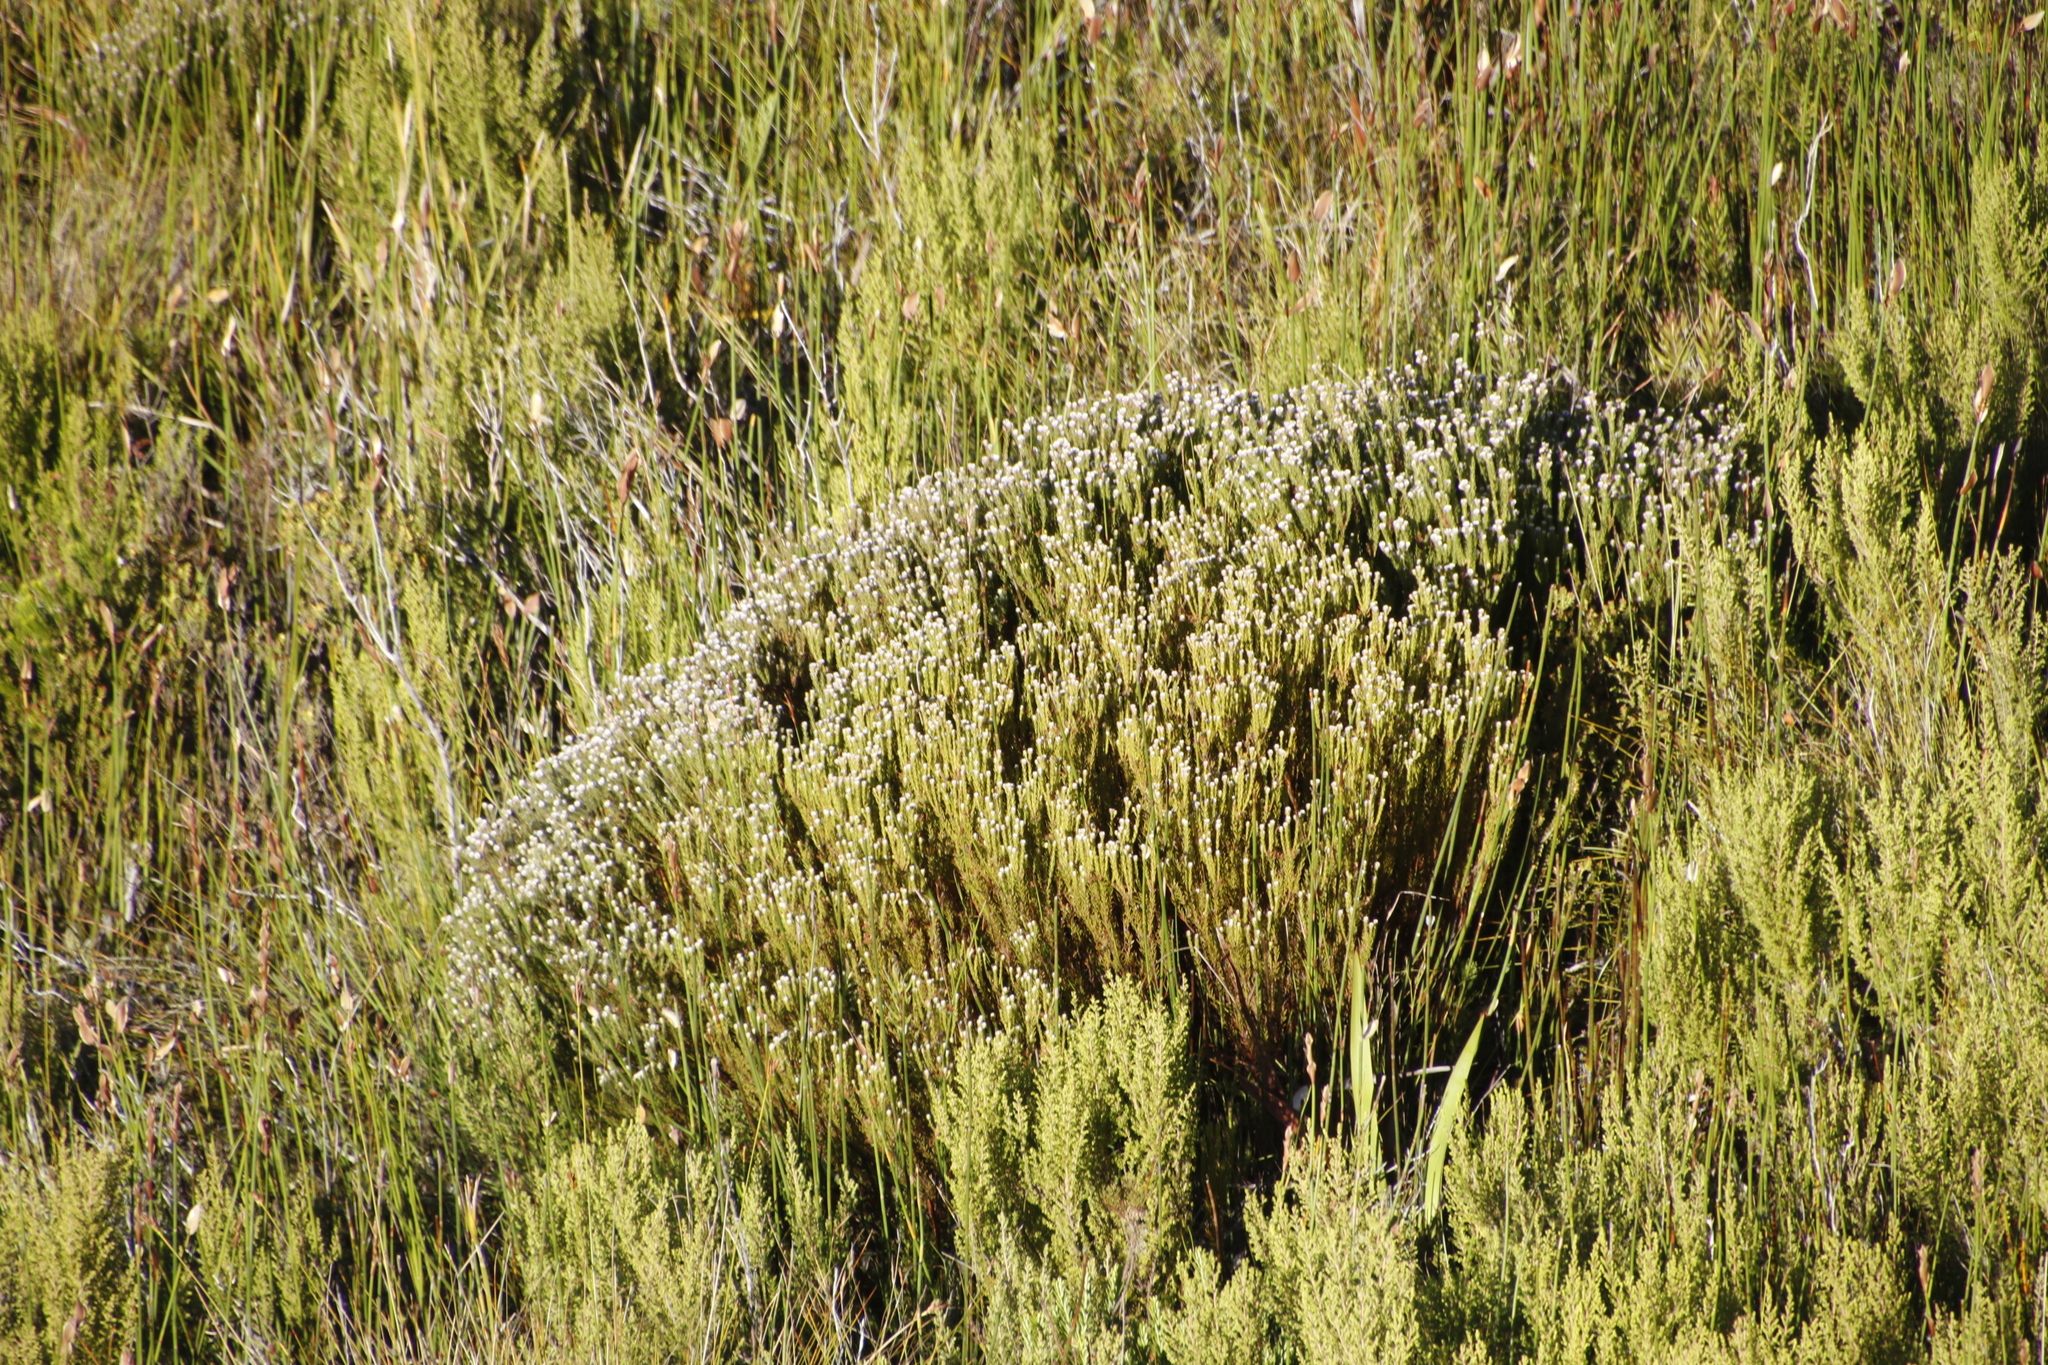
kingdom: Plantae
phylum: Tracheophyta
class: Magnoliopsida
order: Bruniales
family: Bruniaceae
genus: Staavia
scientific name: Staavia radiata
